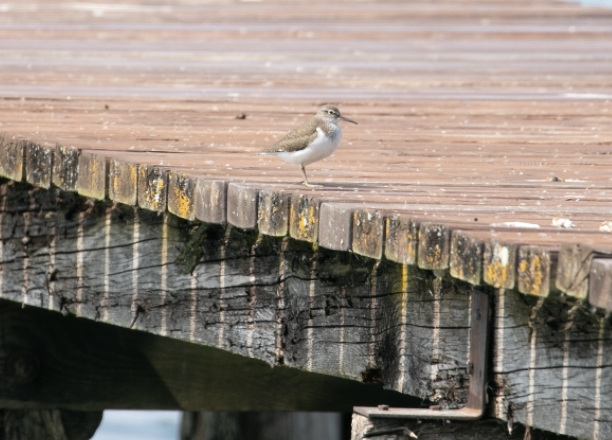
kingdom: Animalia
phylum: Chordata
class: Aves
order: Charadriiformes
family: Scolopacidae
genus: Actitis
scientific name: Actitis hypoleucos
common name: Common sandpiper
